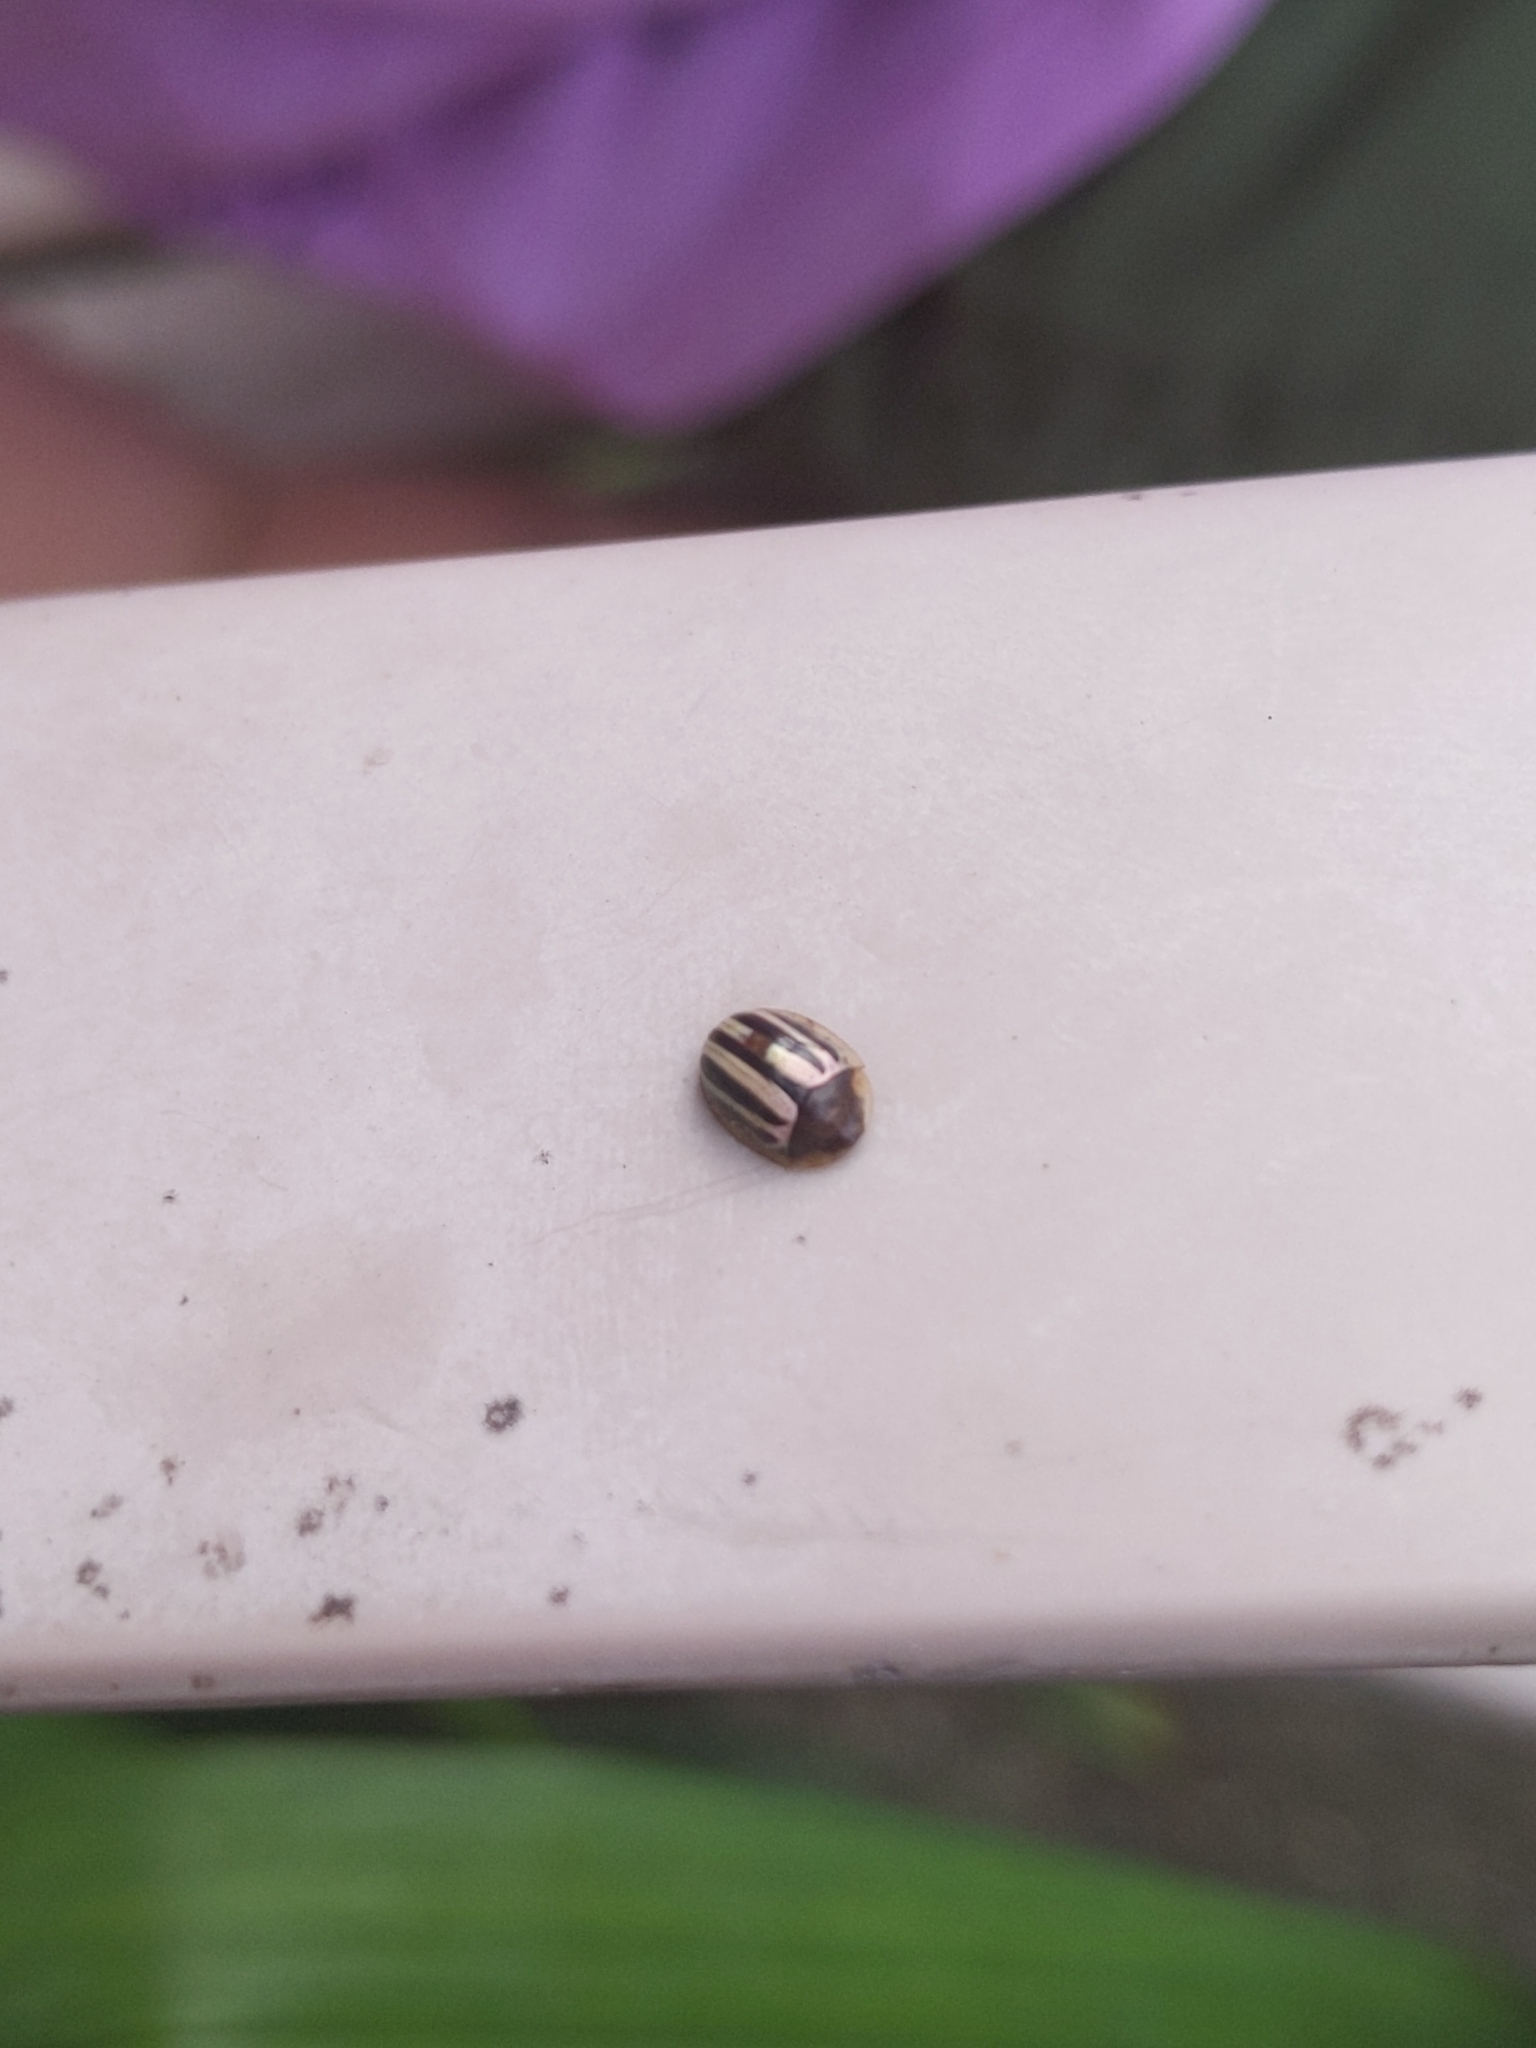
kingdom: Animalia
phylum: Arthropoda
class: Insecta
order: Coleoptera
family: Chrysomelidae
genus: Agroiconota
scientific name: Agroiconota bivittata
